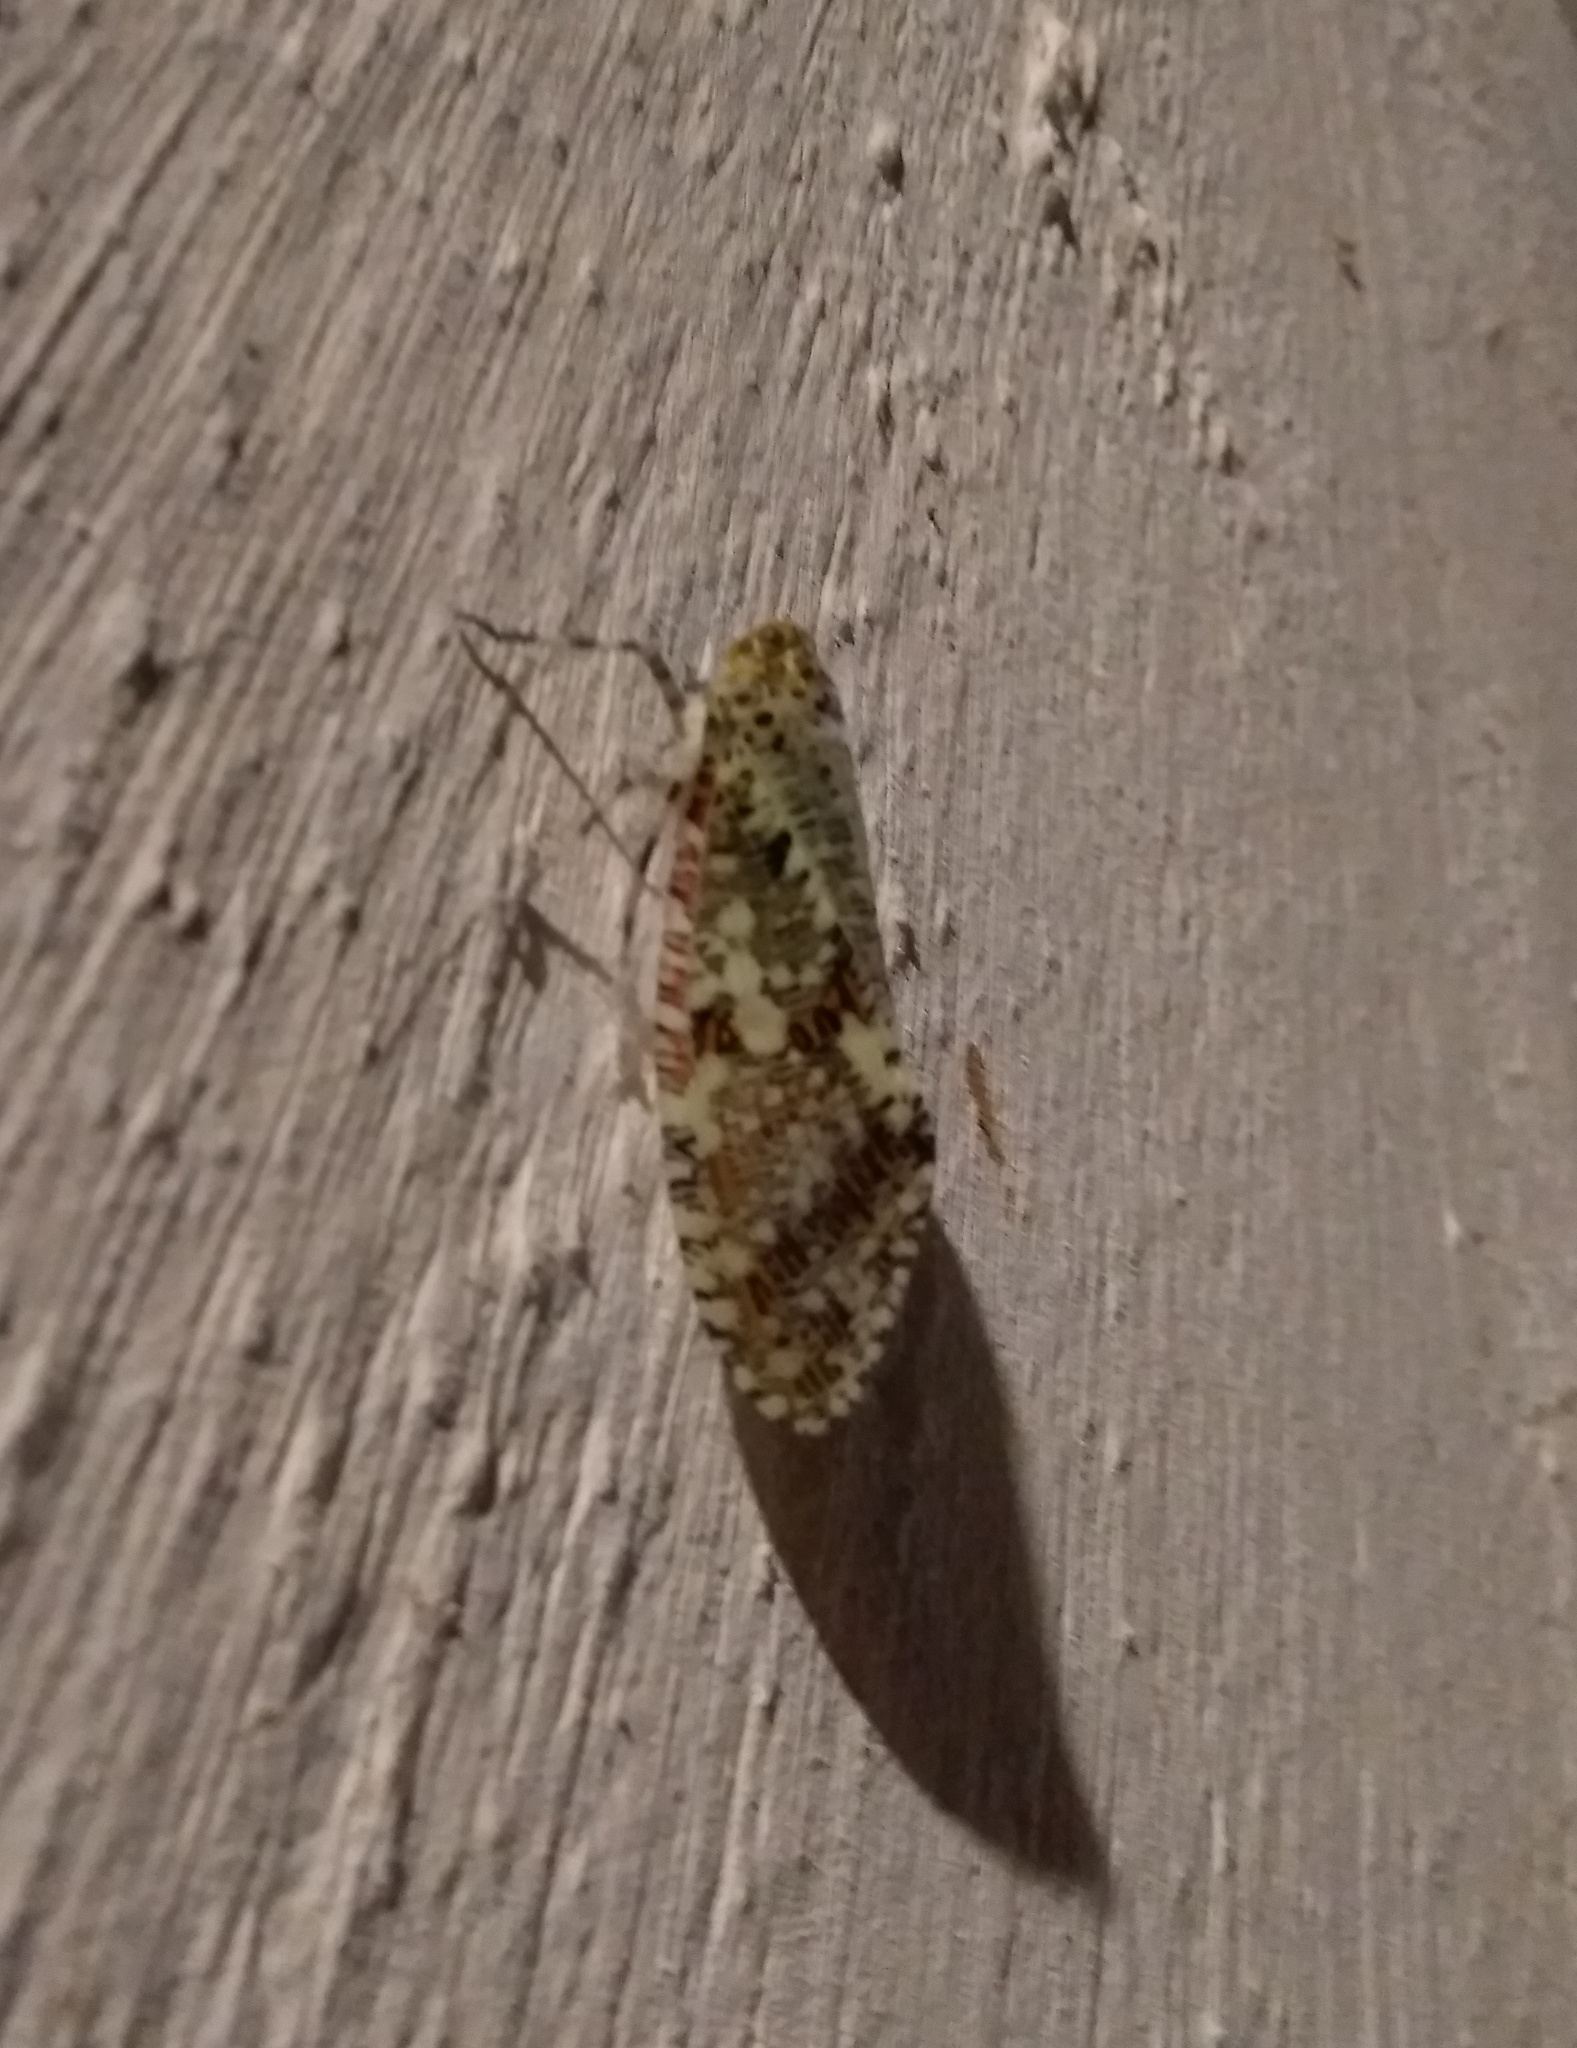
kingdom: Animalia
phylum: Arthropoda
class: Insecta
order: Hemiptera
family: Fulgoridae
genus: Phenax
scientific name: Phenax variegata
